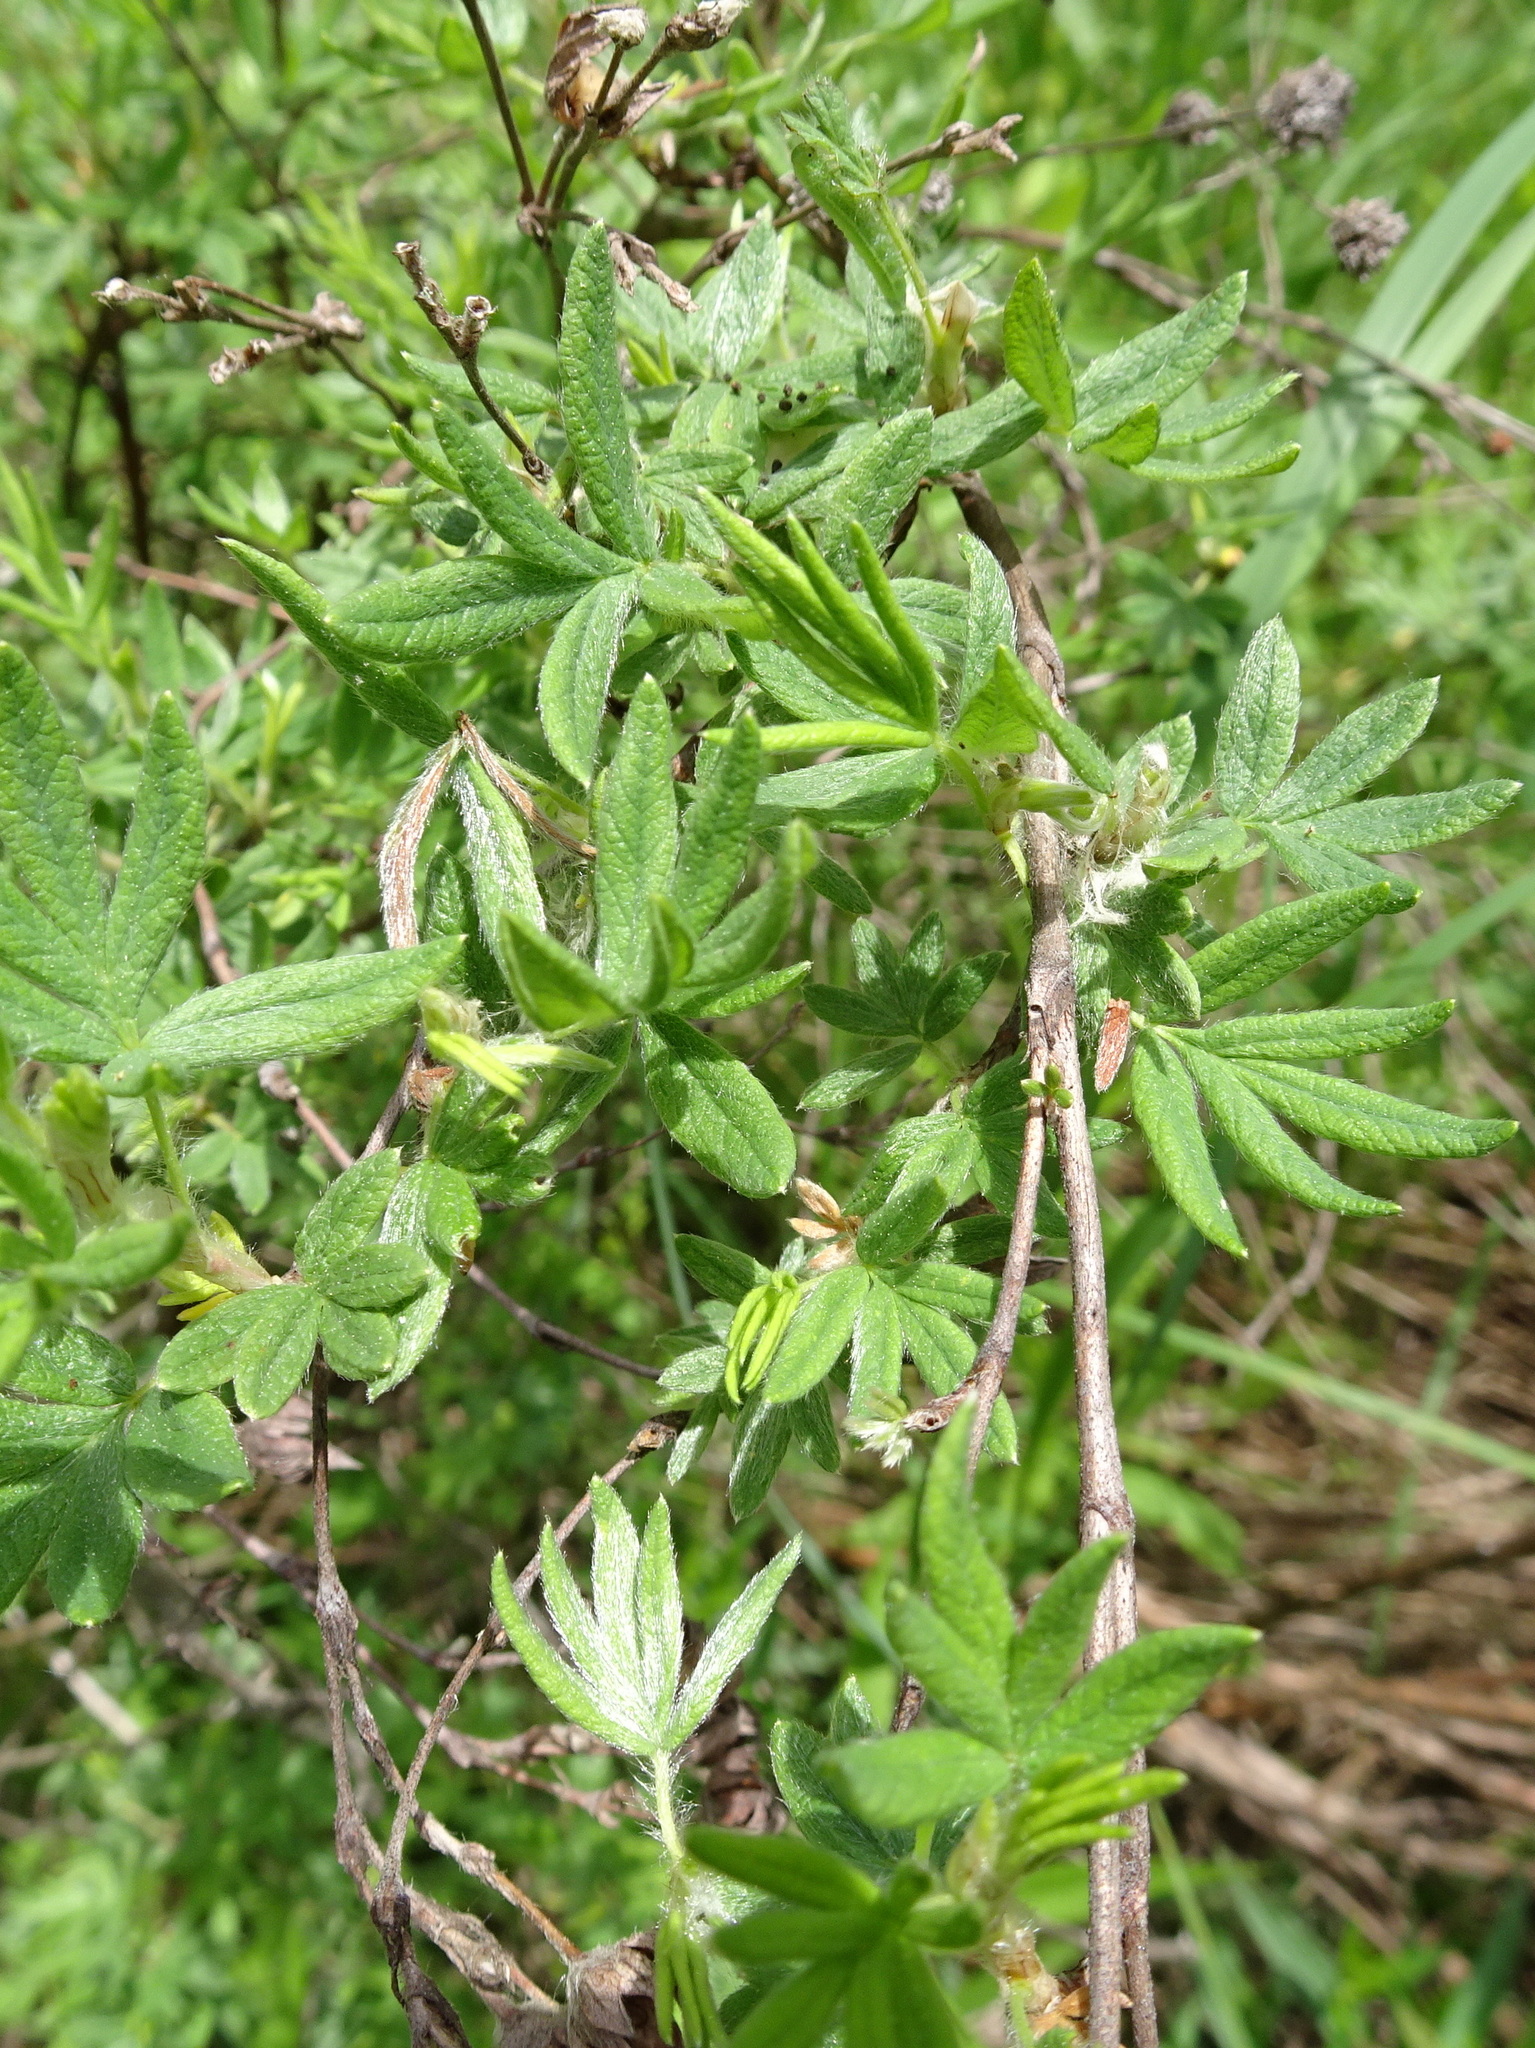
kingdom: Plantae
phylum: Tracheophyta
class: Magnoliopsida
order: Rosales
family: Rosaceae
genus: Dasiphora
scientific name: Dasiphora fruticosa
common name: Shrubby cinquefoil
